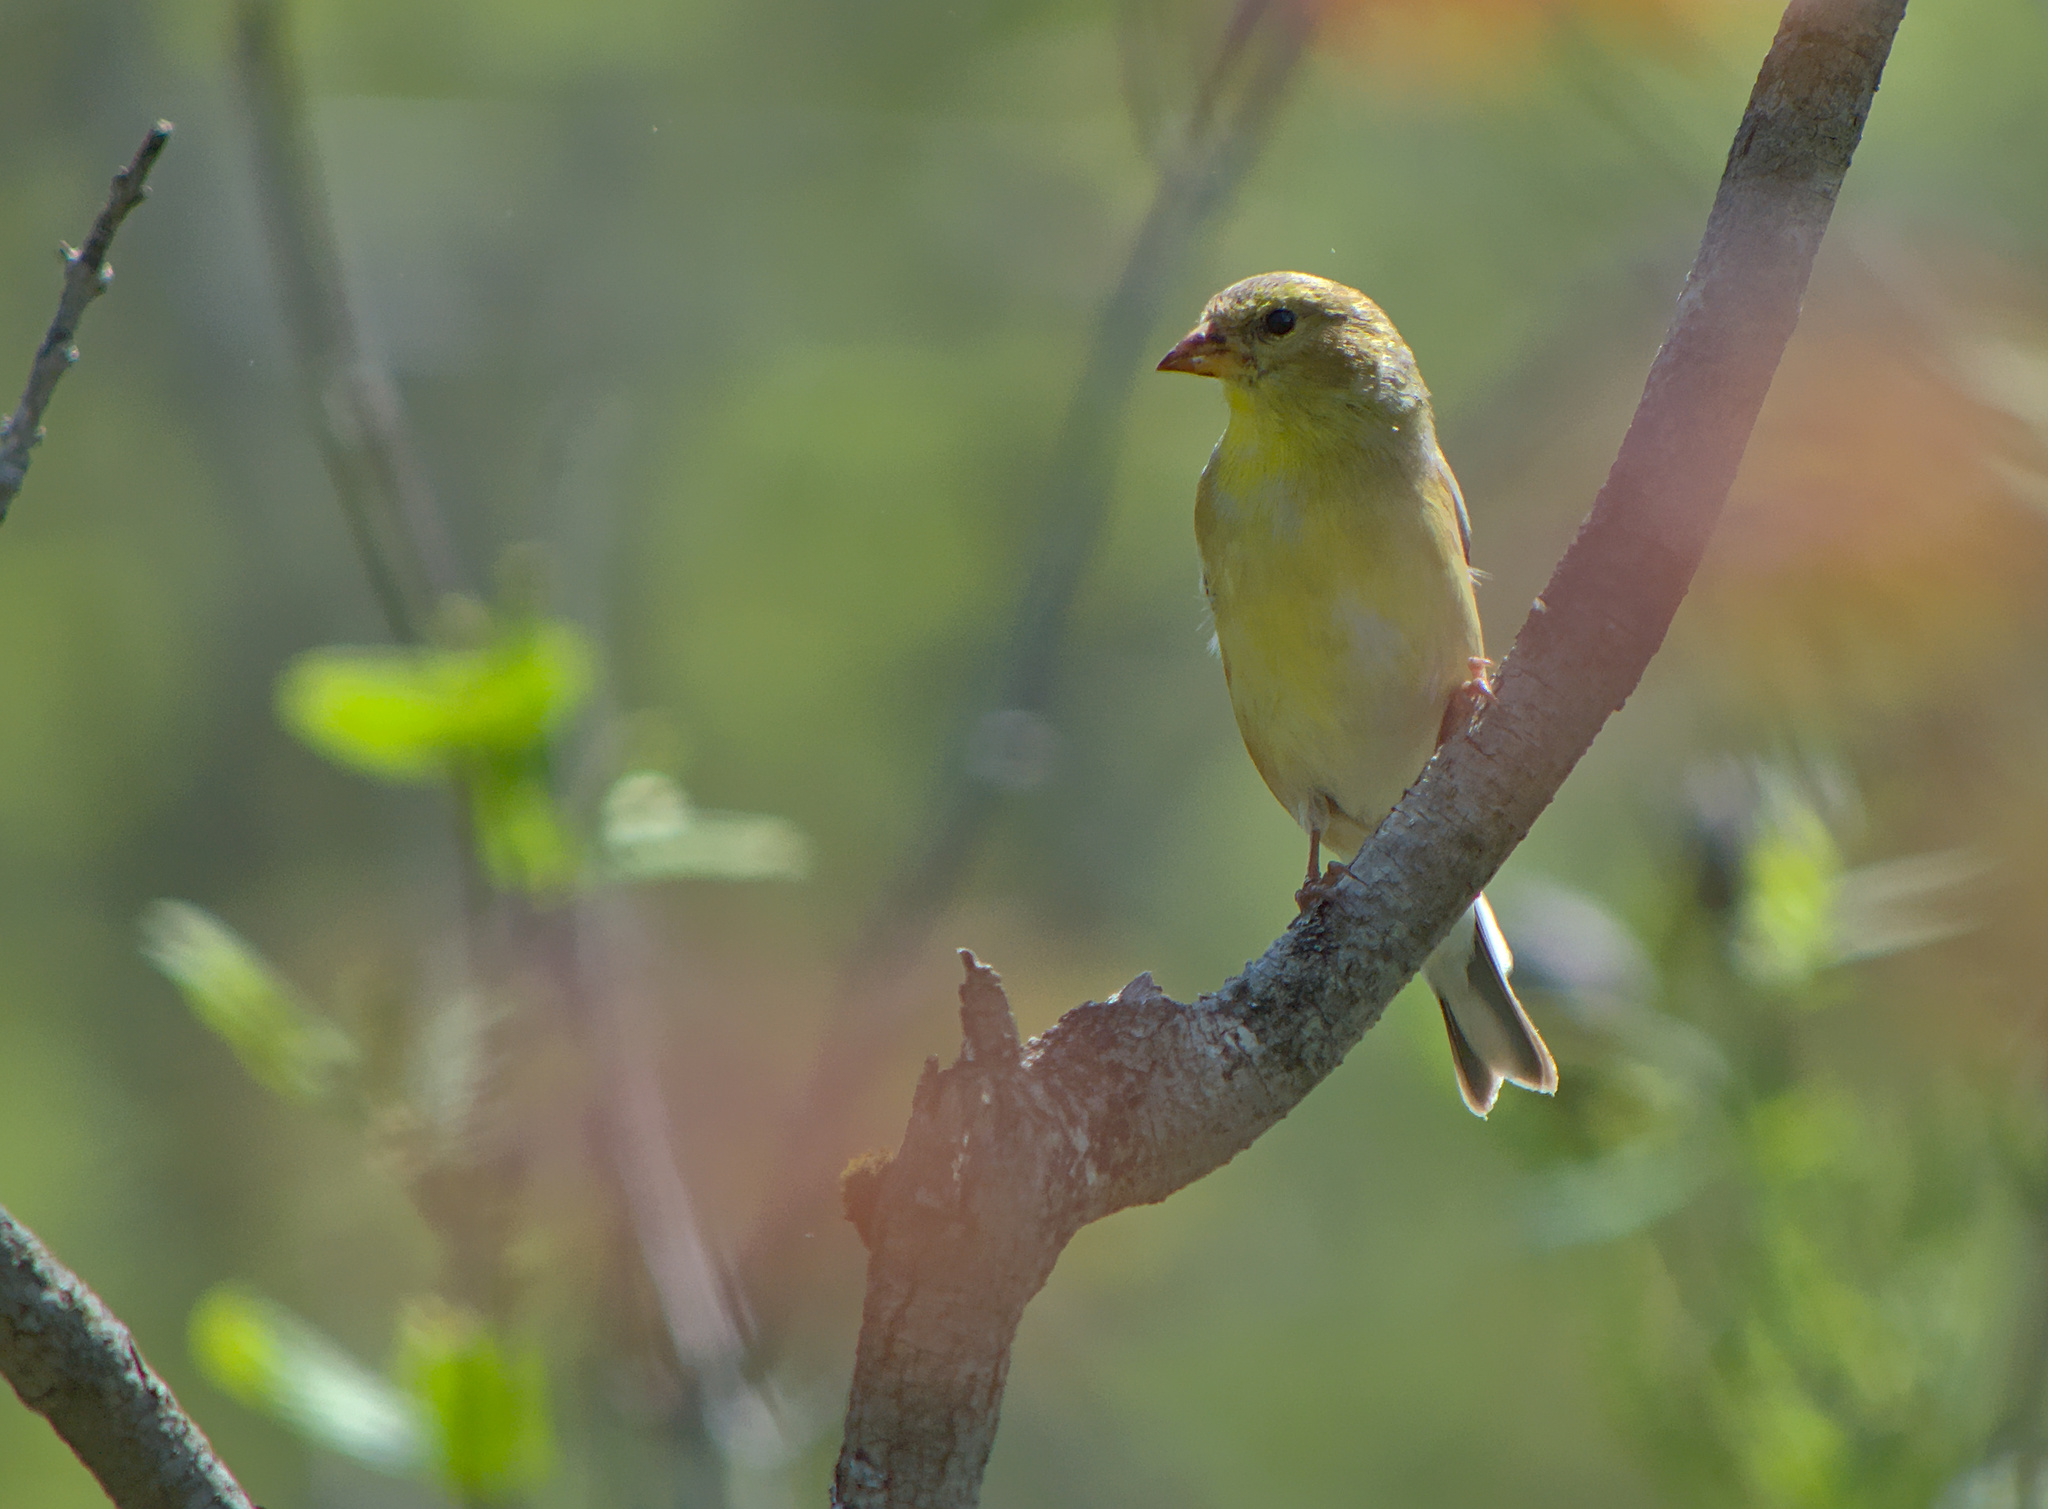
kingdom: Animalia
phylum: Chordata
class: Aves
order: Passeriformes
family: Fringillidae
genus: Spinus
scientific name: Spinus tristis
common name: American goldfinch
